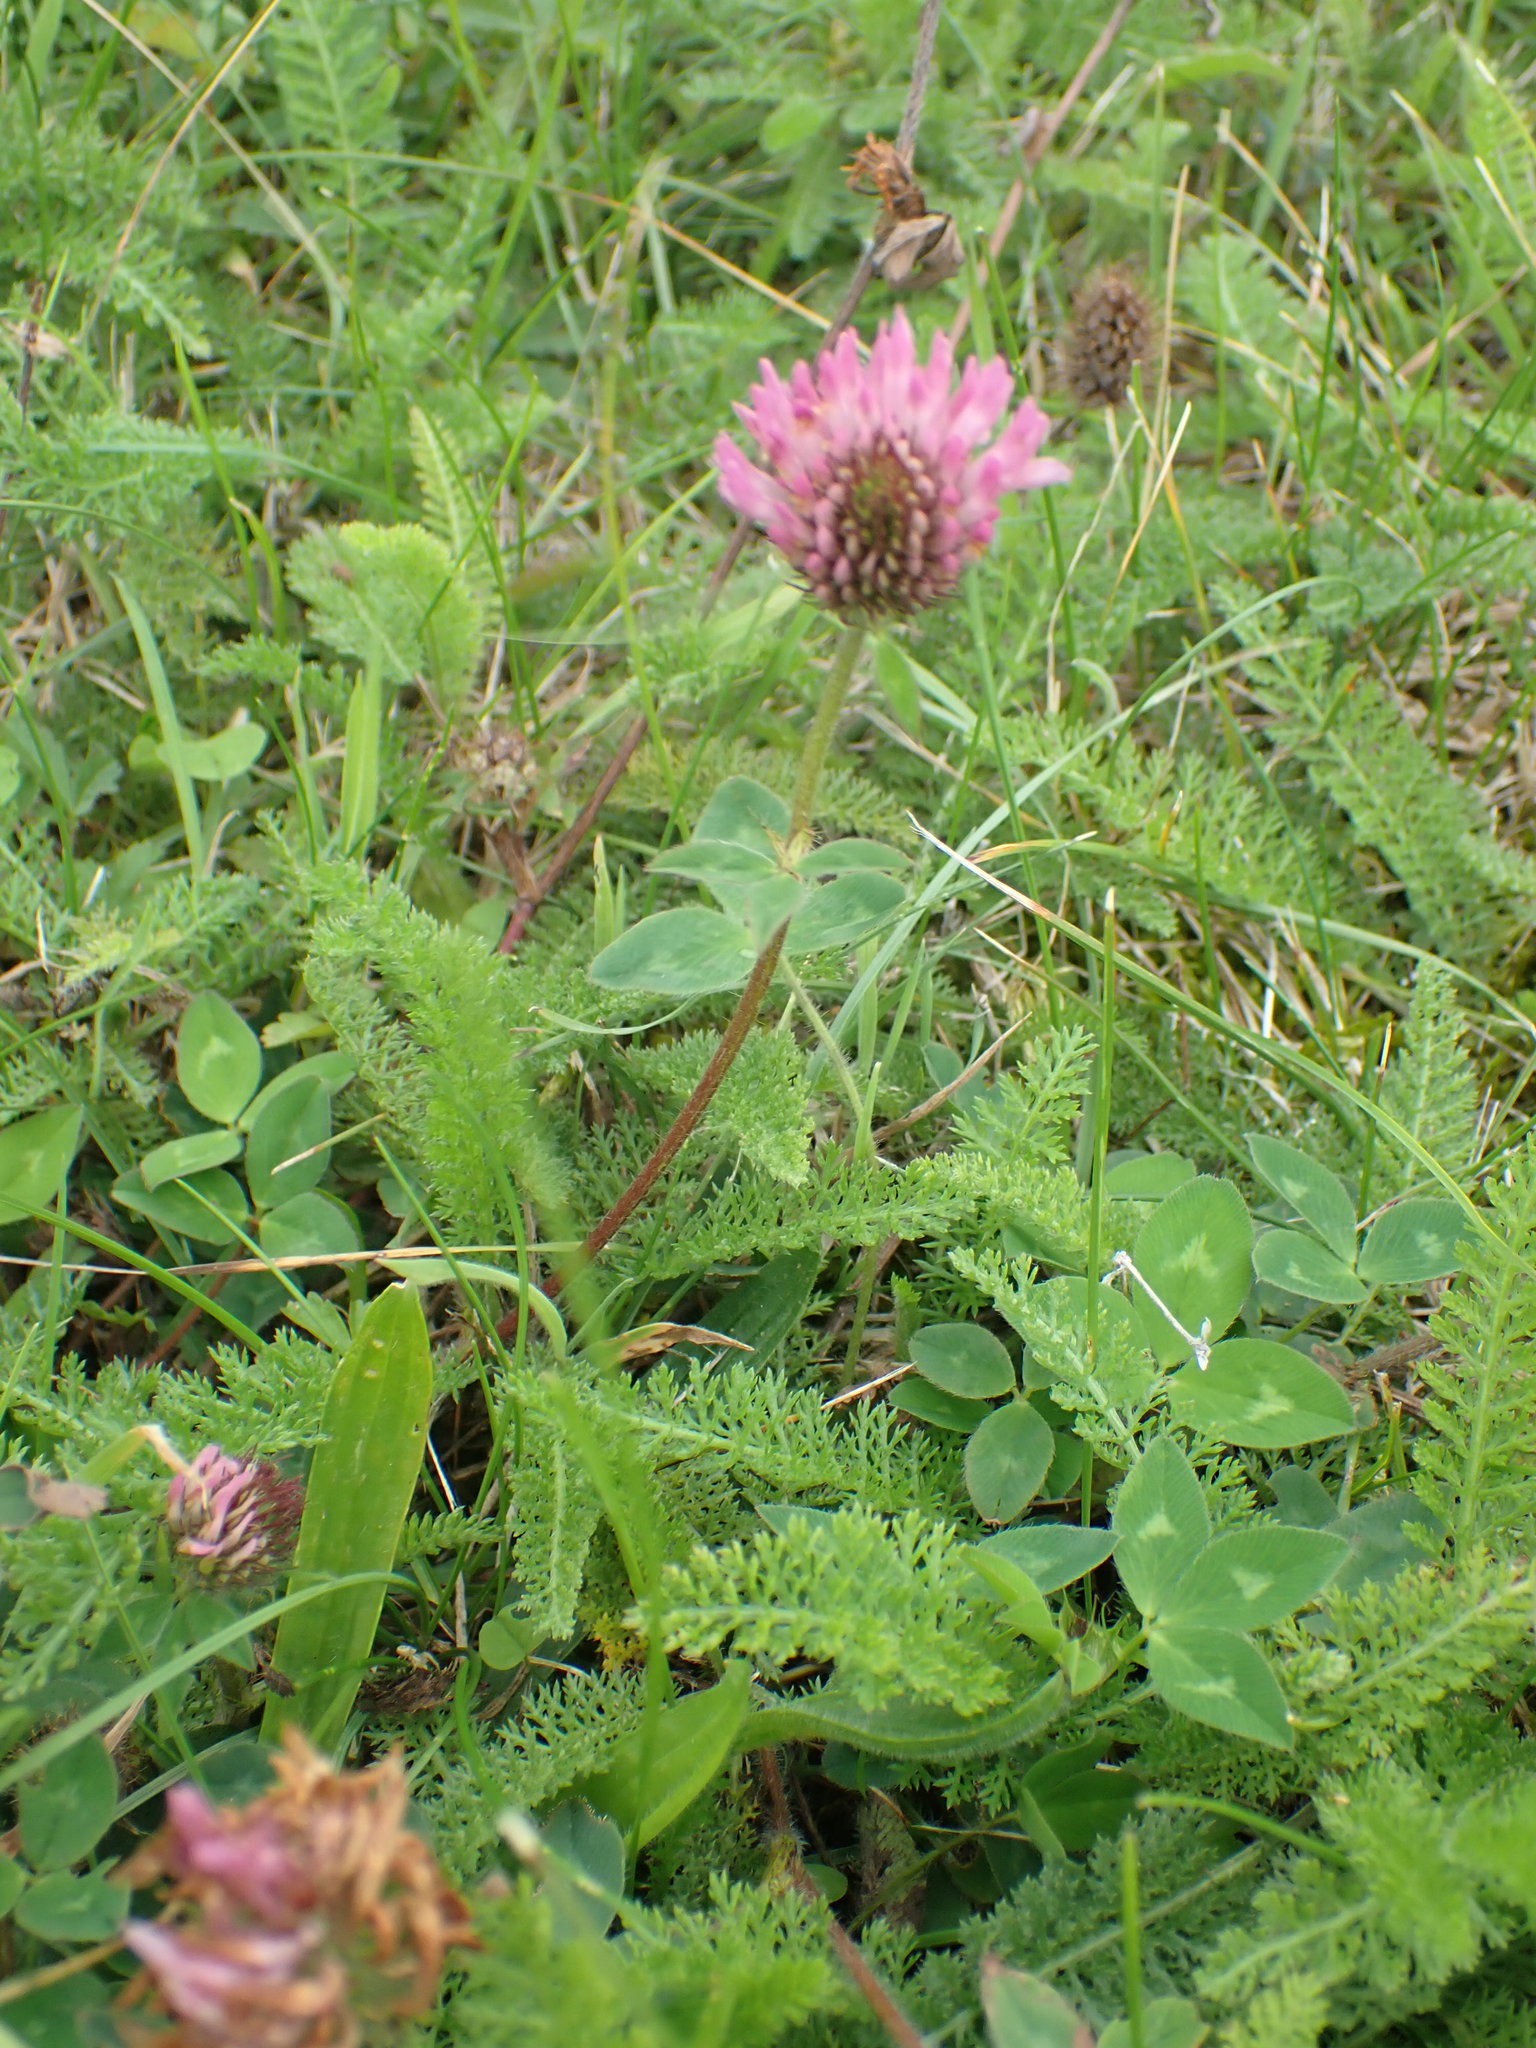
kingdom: Plantae
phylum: Tracheophyta
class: Magnoliopsida
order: Fabales
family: Fabaceae
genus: Trifolium
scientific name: Trifolium pratense
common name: Red clover
